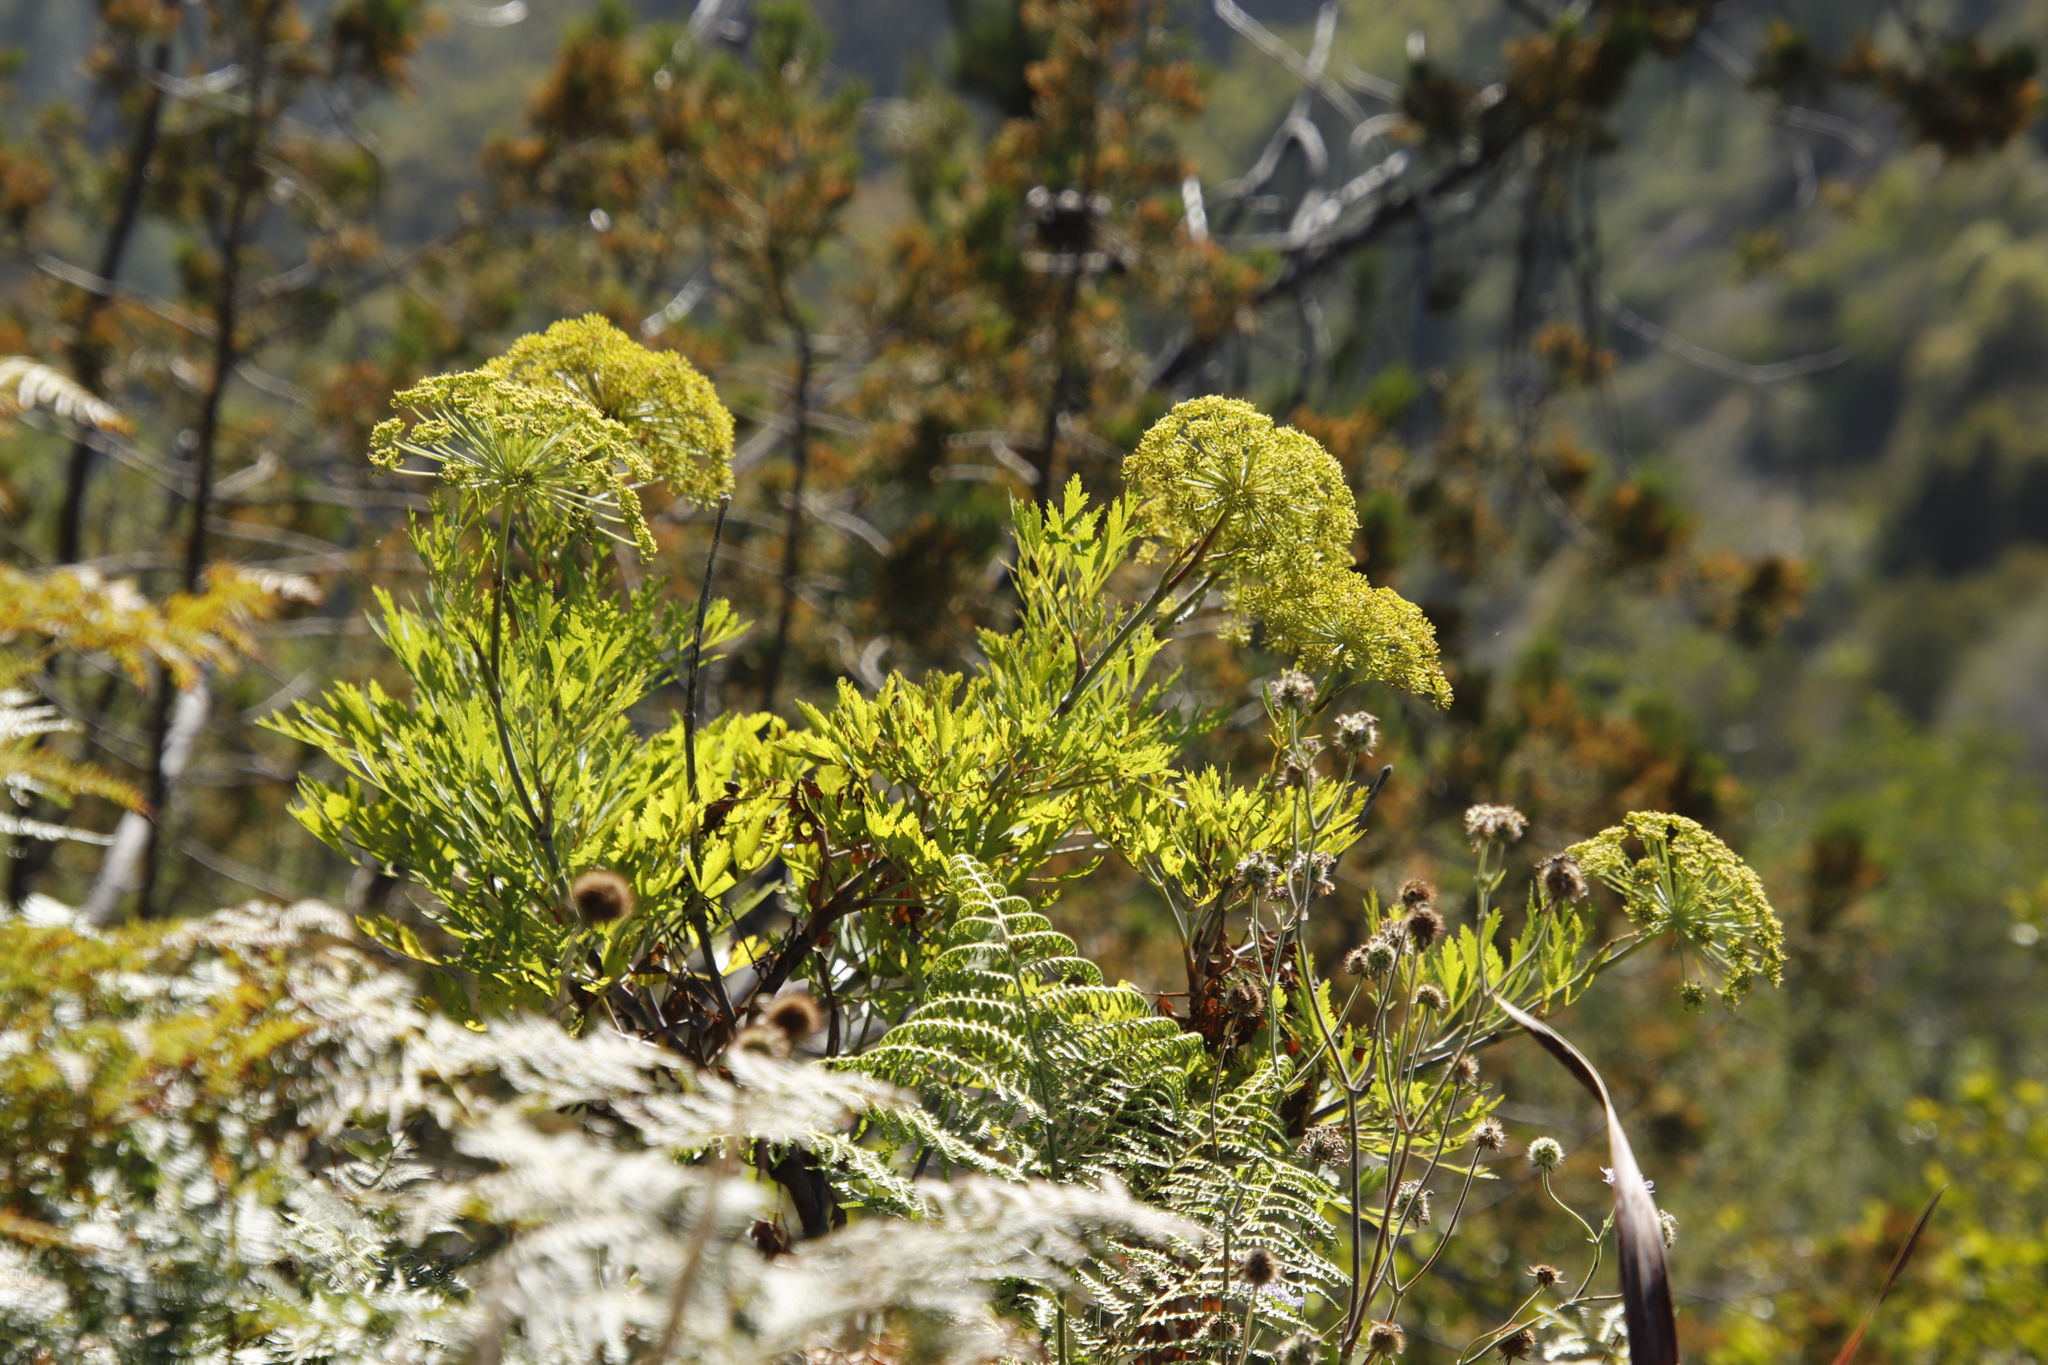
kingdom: Plantae
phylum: Tracheophyta
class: Magnoliopsida
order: Apiales
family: Apiaceae
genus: Notobubon
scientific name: Notobubon galbanum
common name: Blisterbush
